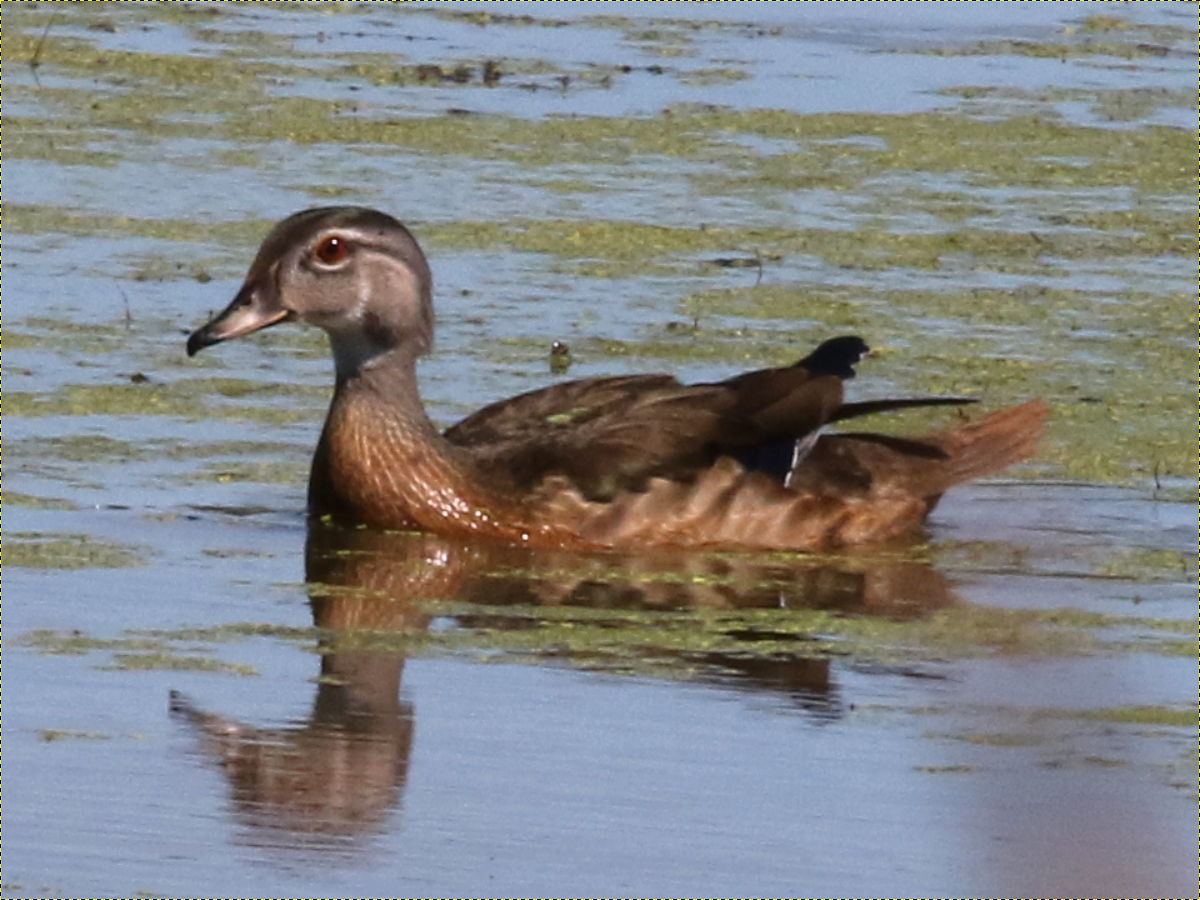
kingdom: Animalia
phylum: Chordata
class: Aves
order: Anseriformes
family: Anatidae
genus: Aix
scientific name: Aix sponsa
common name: Wood duck
